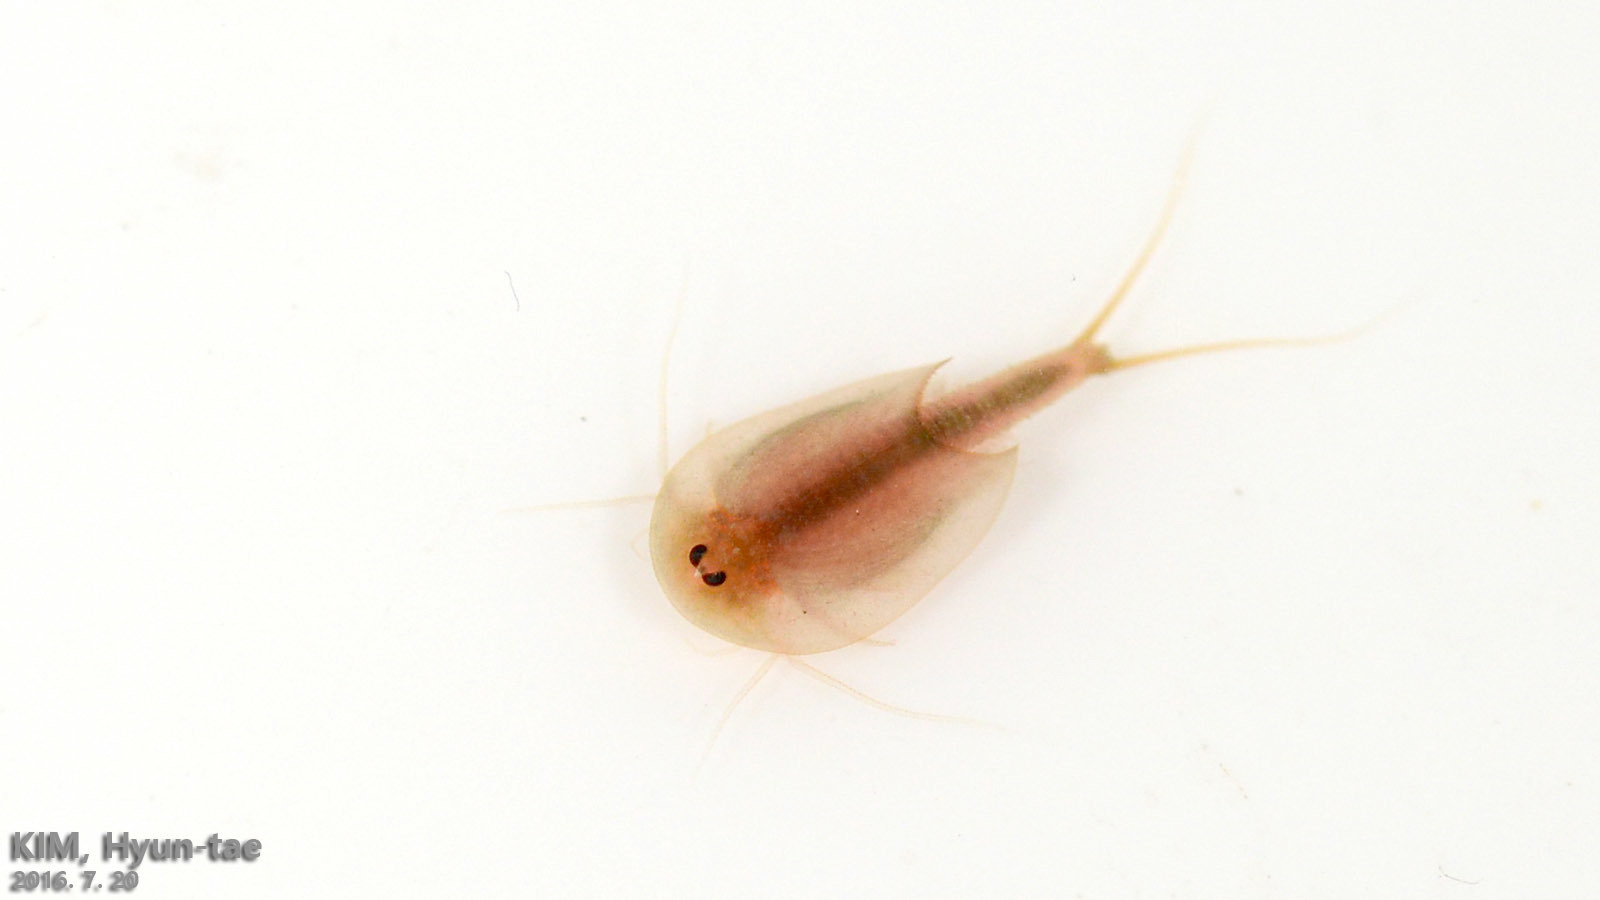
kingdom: Animalia
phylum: Arthropoda
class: Branchiopoda
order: Notostraca
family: Triopsidae
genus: Triops
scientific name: Triops granarius
